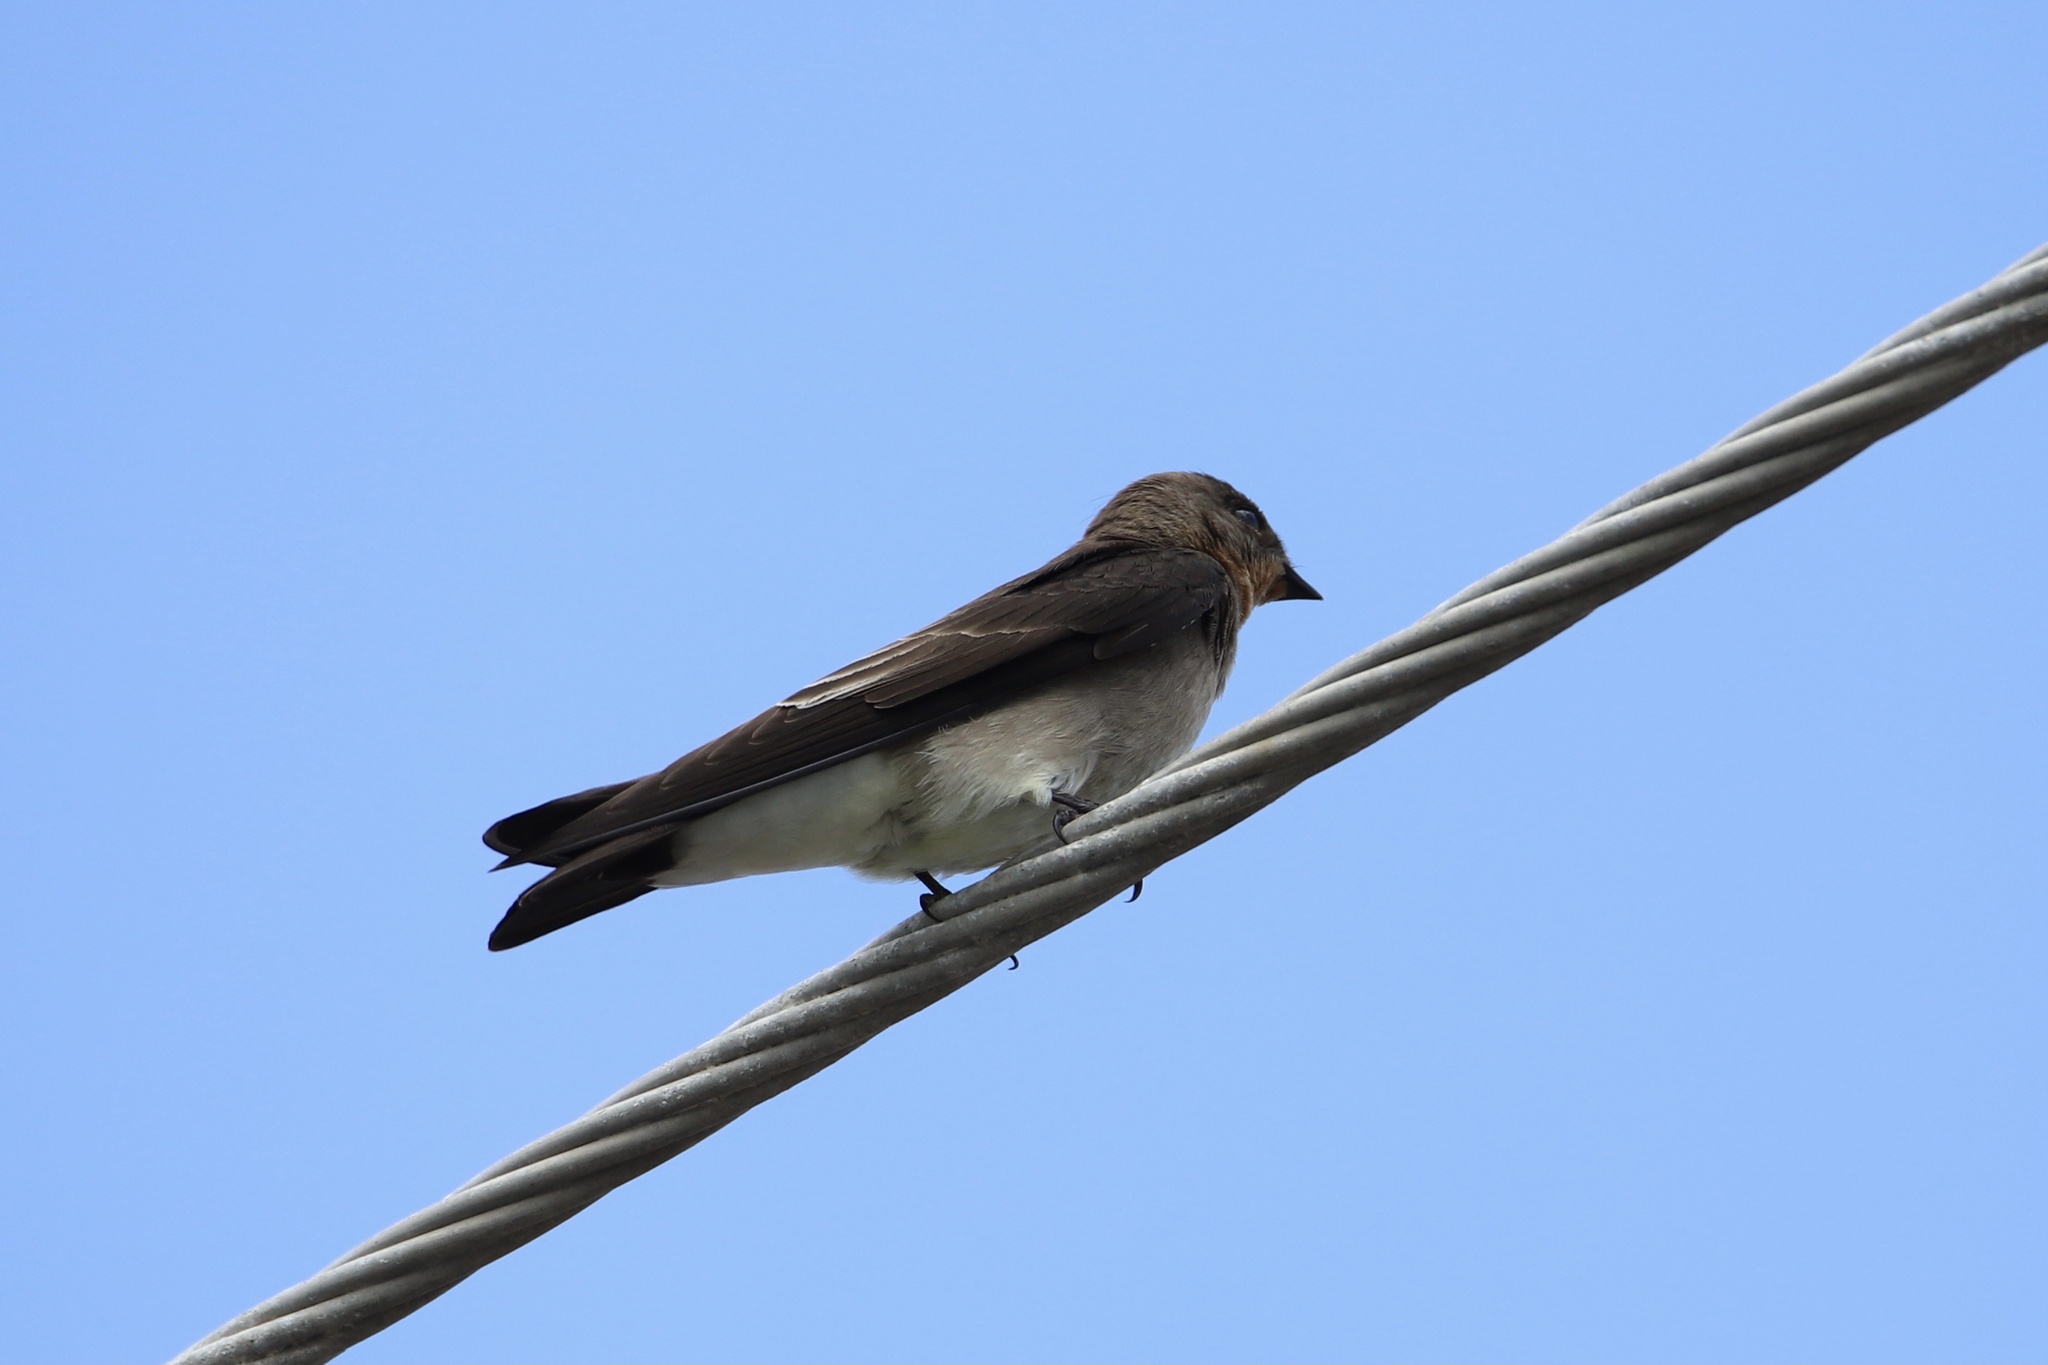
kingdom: Animalia
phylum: Chordata
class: Aves
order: Passeriformes
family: Hirundinidae
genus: Stelgidopteryx
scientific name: Stelgidopteryx ruficollis
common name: Southern rough-winged swallow
